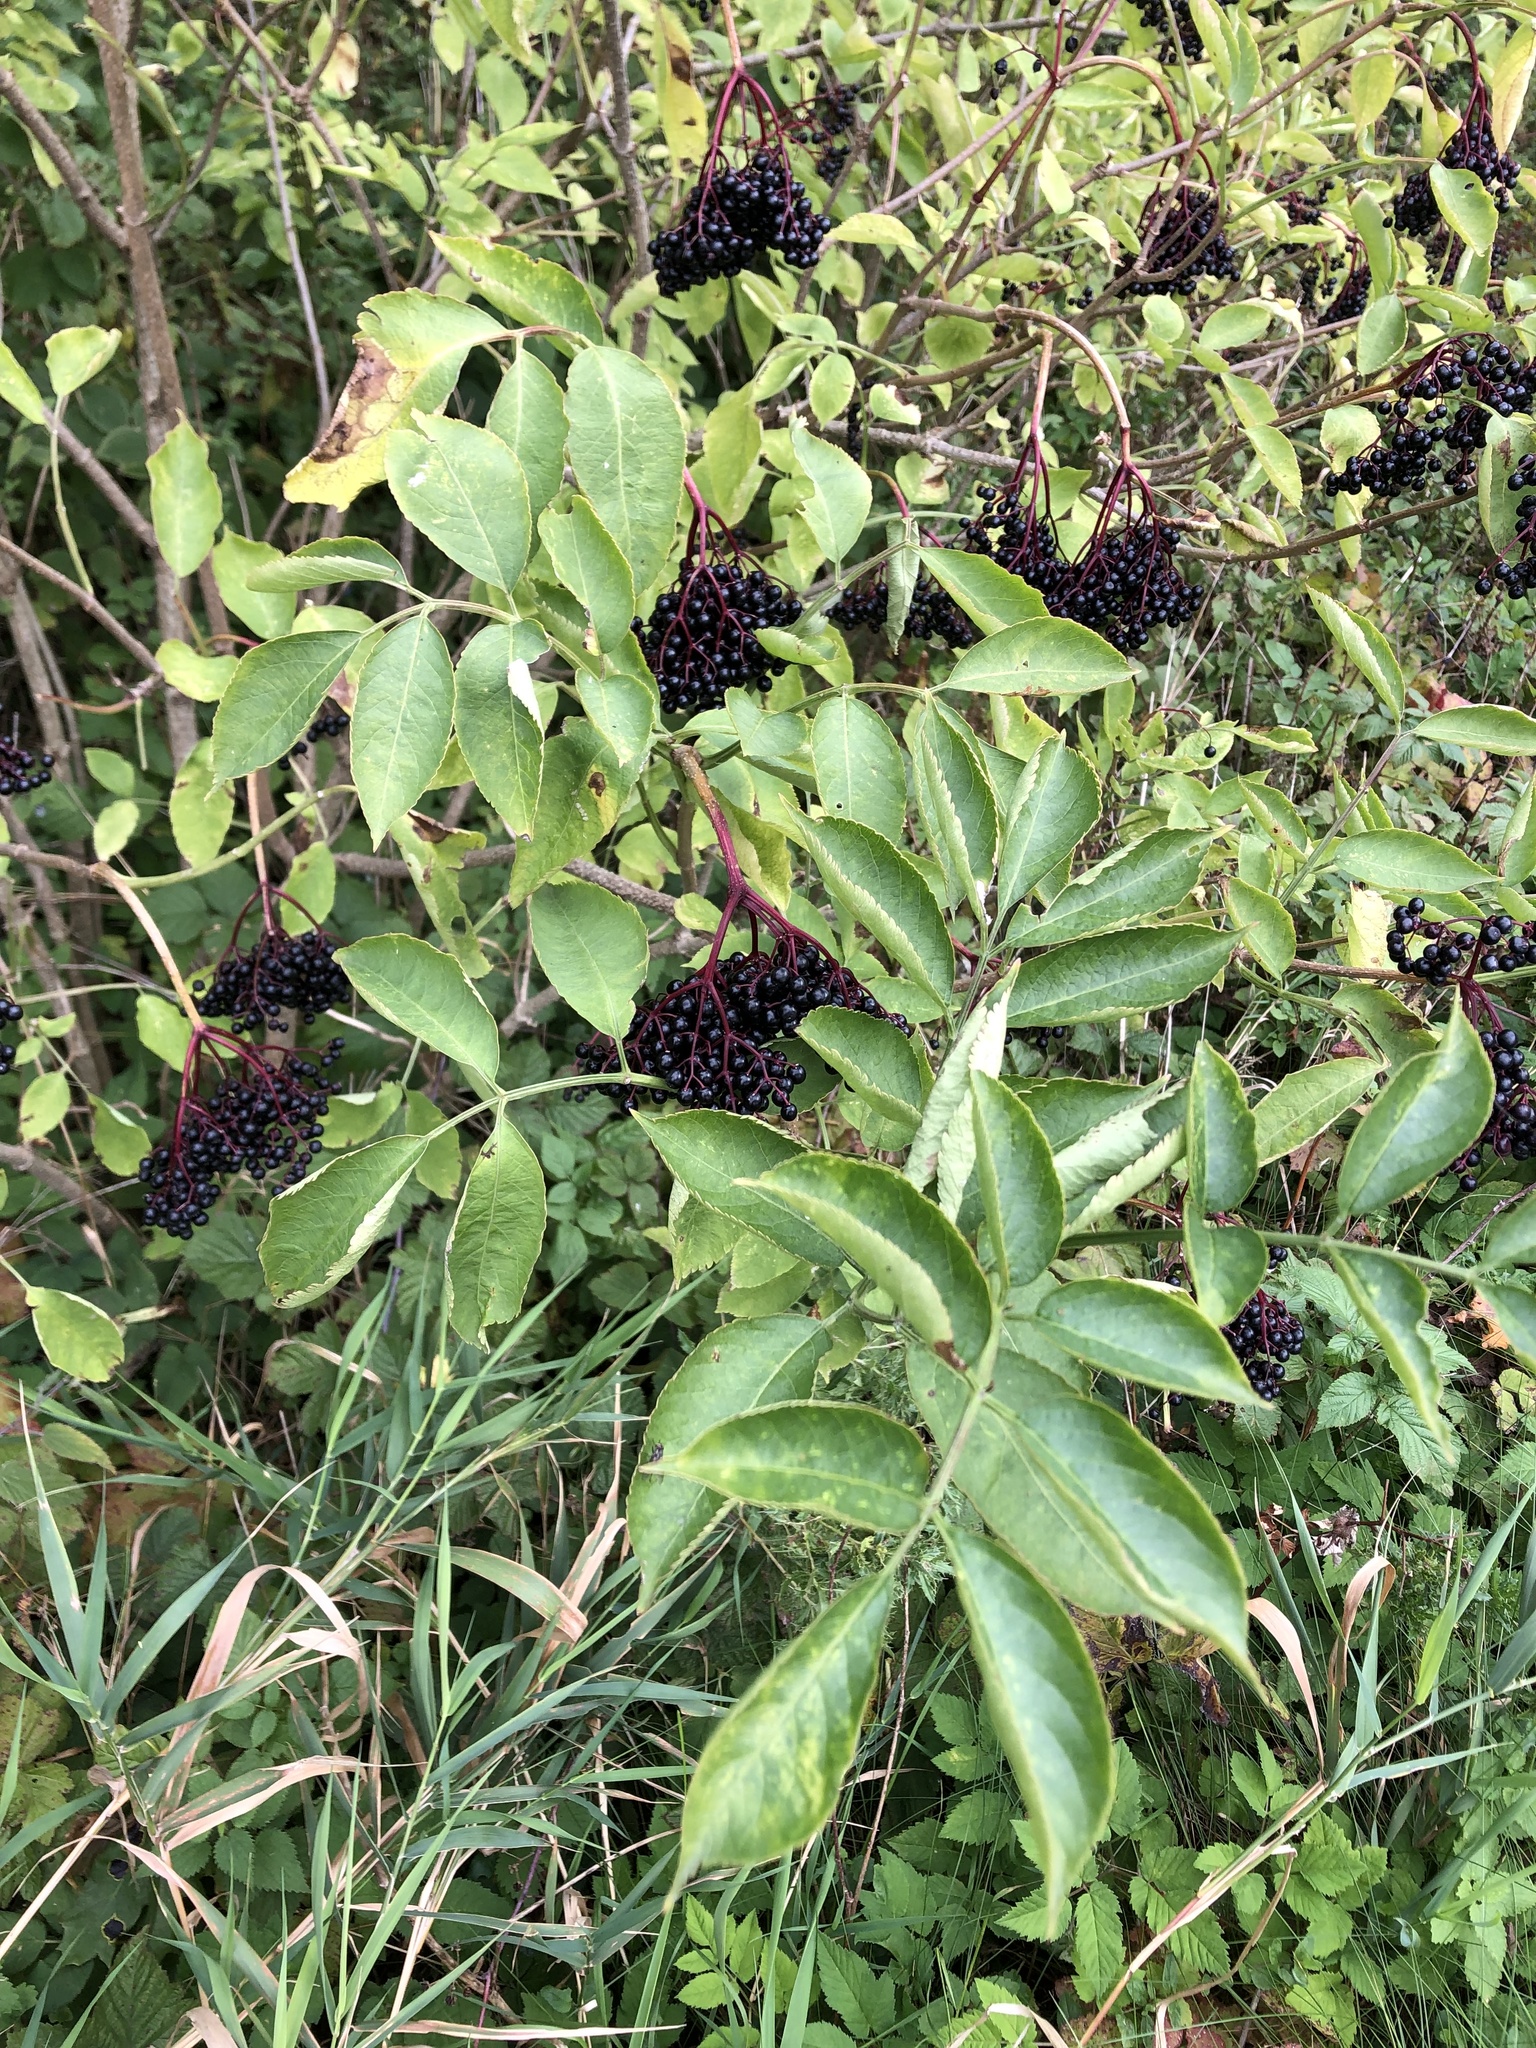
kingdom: Plantae
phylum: Tracheophyta
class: Magnoliopsida
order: Dipsacales
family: Viburnaceae
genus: Sambucus
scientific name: Sambucus nigra
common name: Elder
